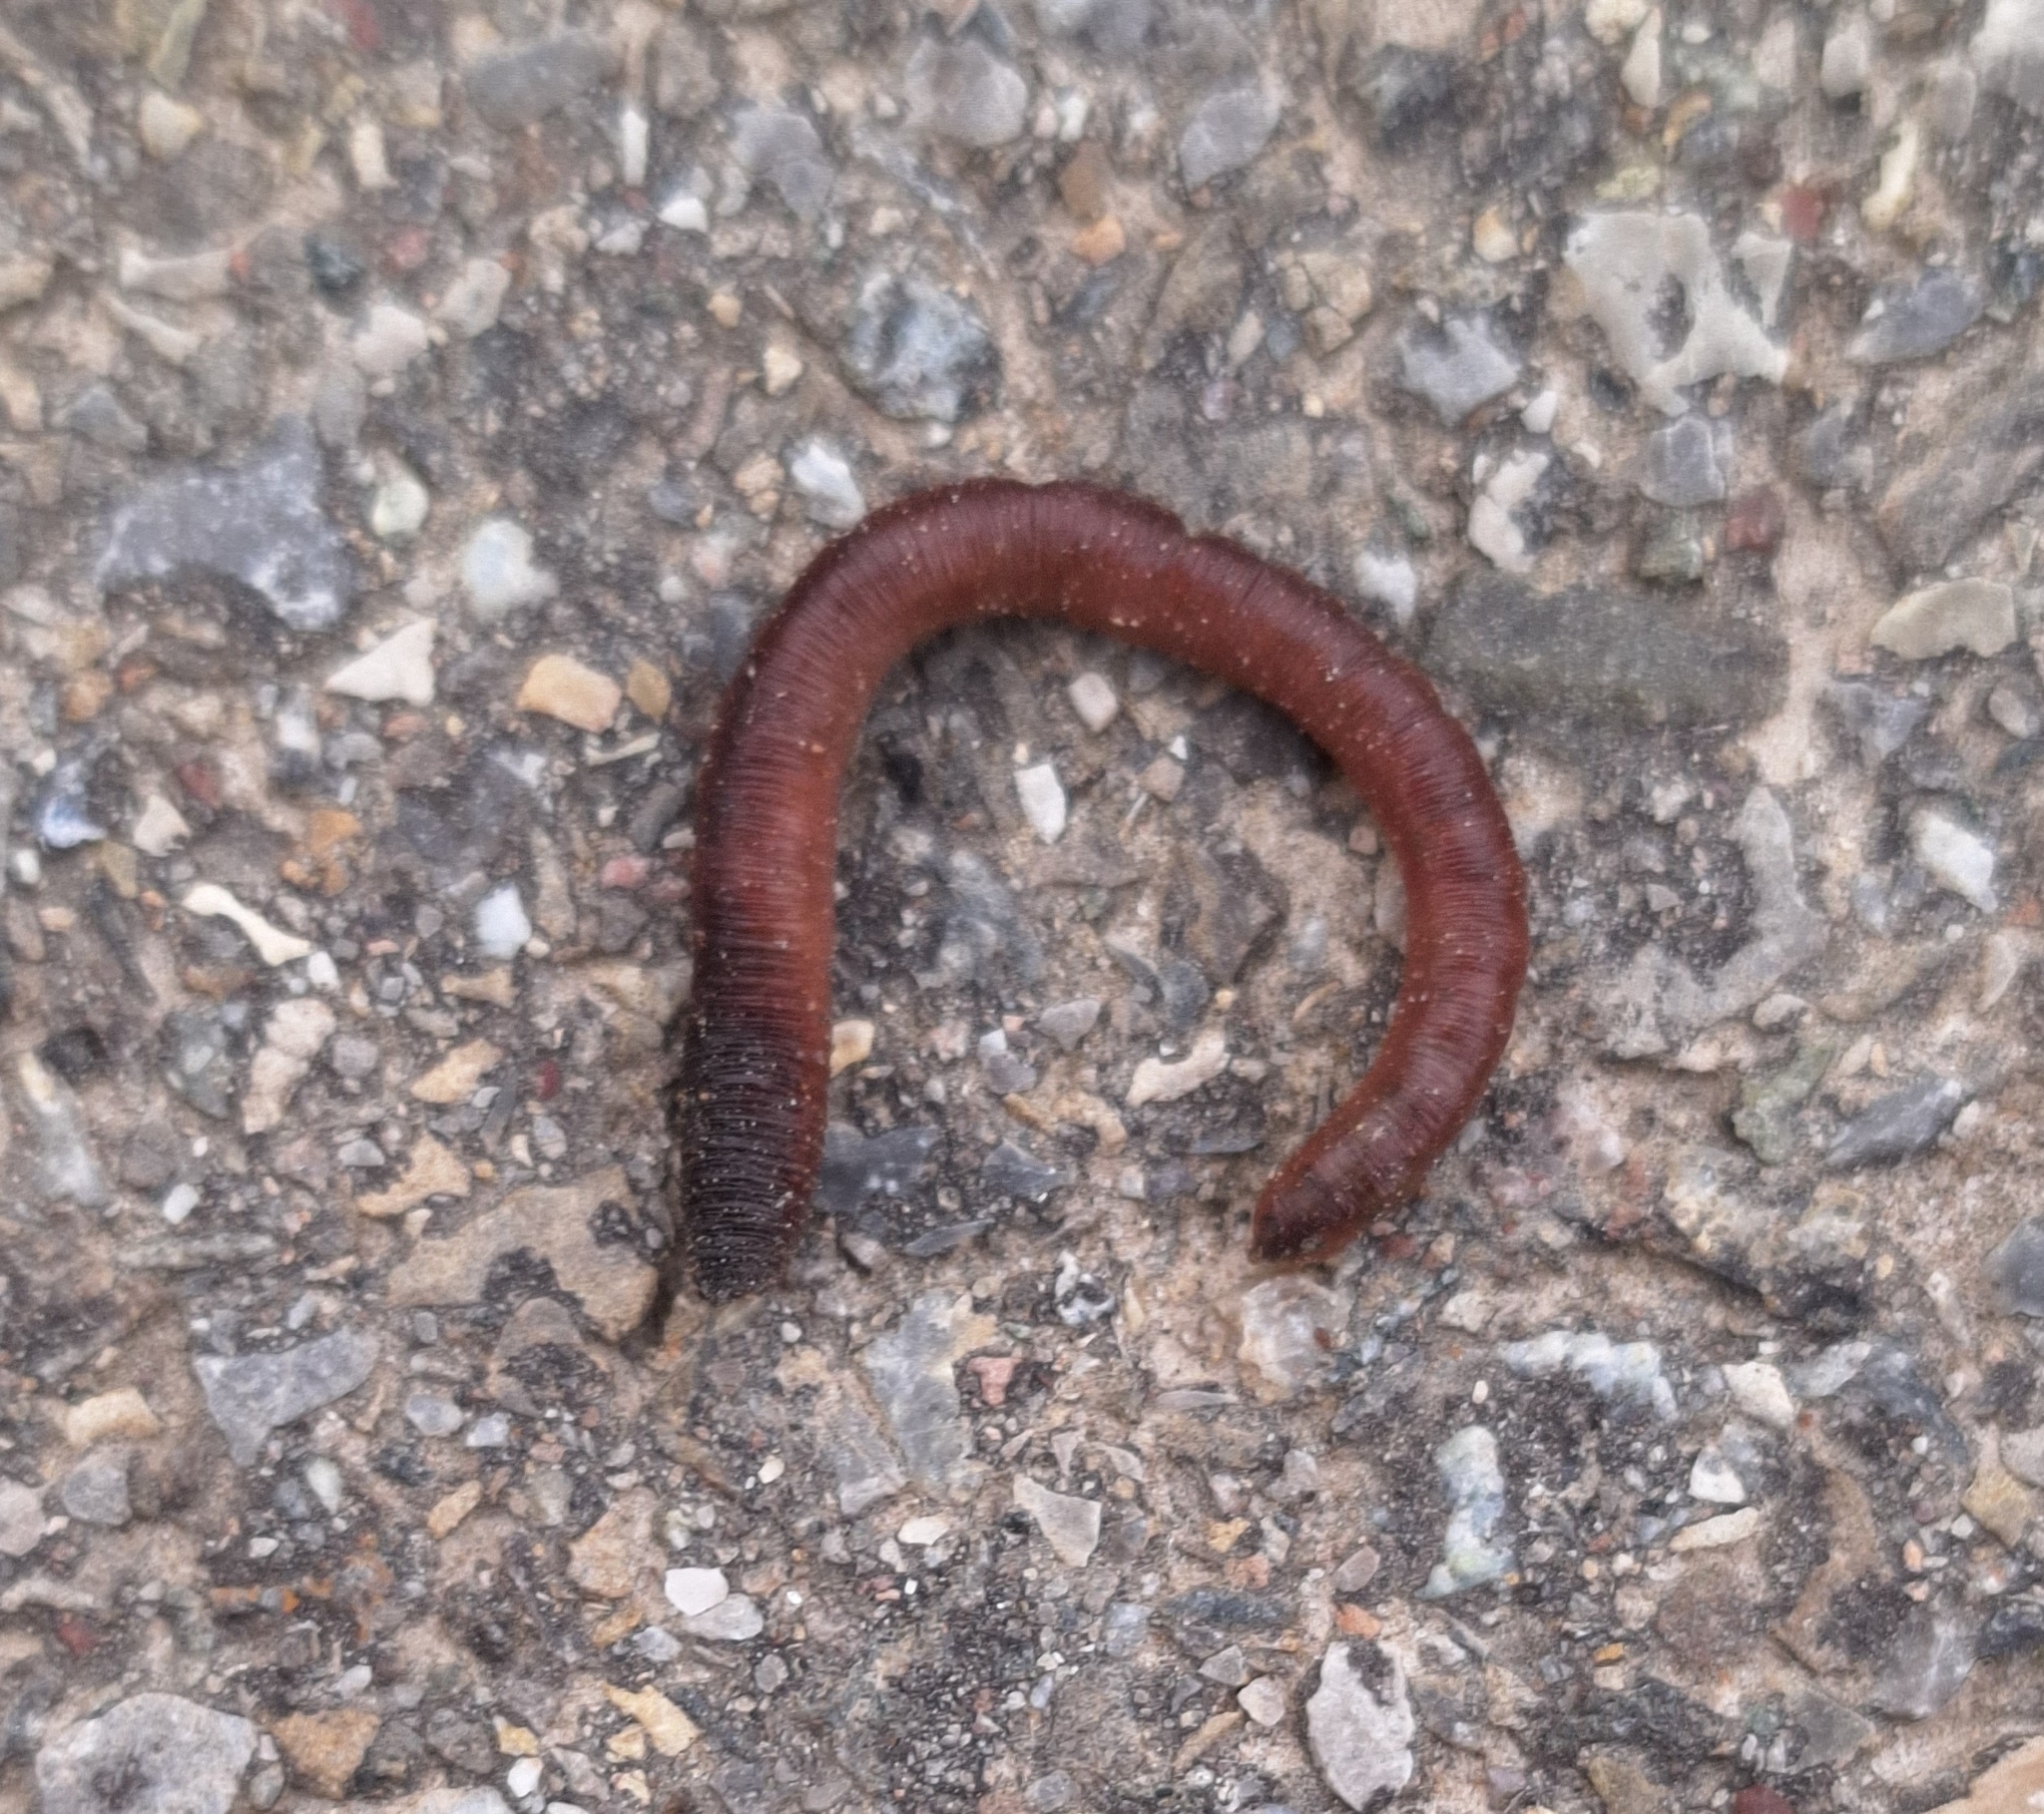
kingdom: Animalia
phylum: Annelida
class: Clitellata
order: Crassiclitellata
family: Lumbricidae
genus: Lumbricus
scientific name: Lumbricus terrestris
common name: Common earthworm
